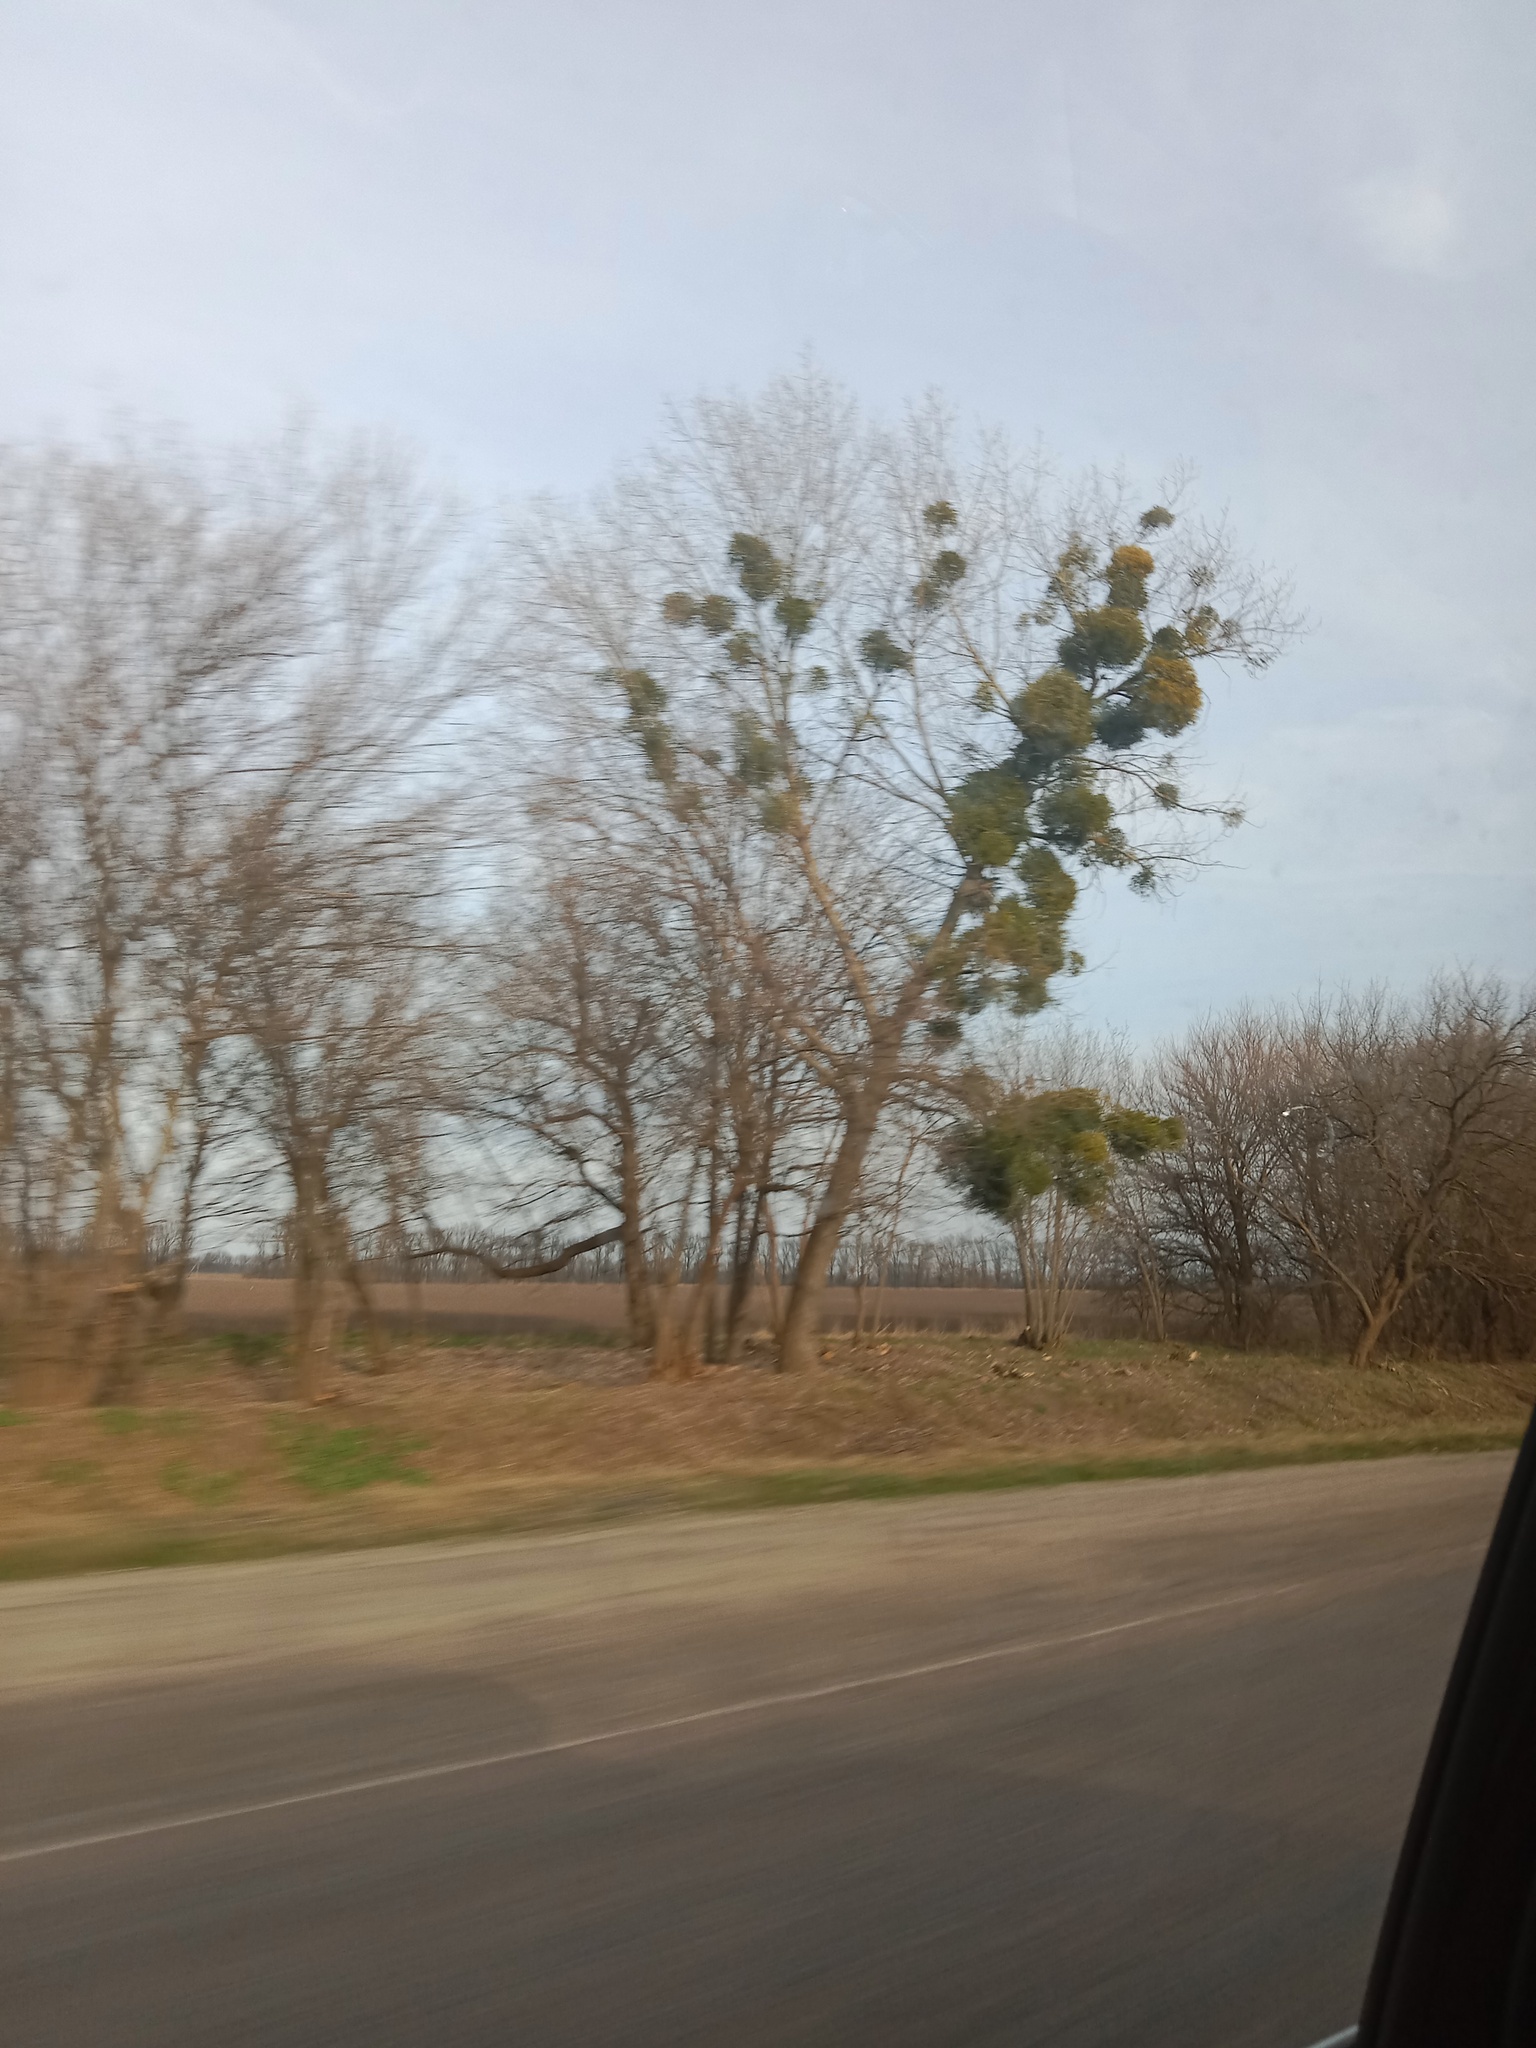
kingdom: Plantae
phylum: Tracheophyta
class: Magnoliopsida
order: Santalales
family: Viscaceae
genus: Viscum
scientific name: Viscum album
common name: Mistletoe
